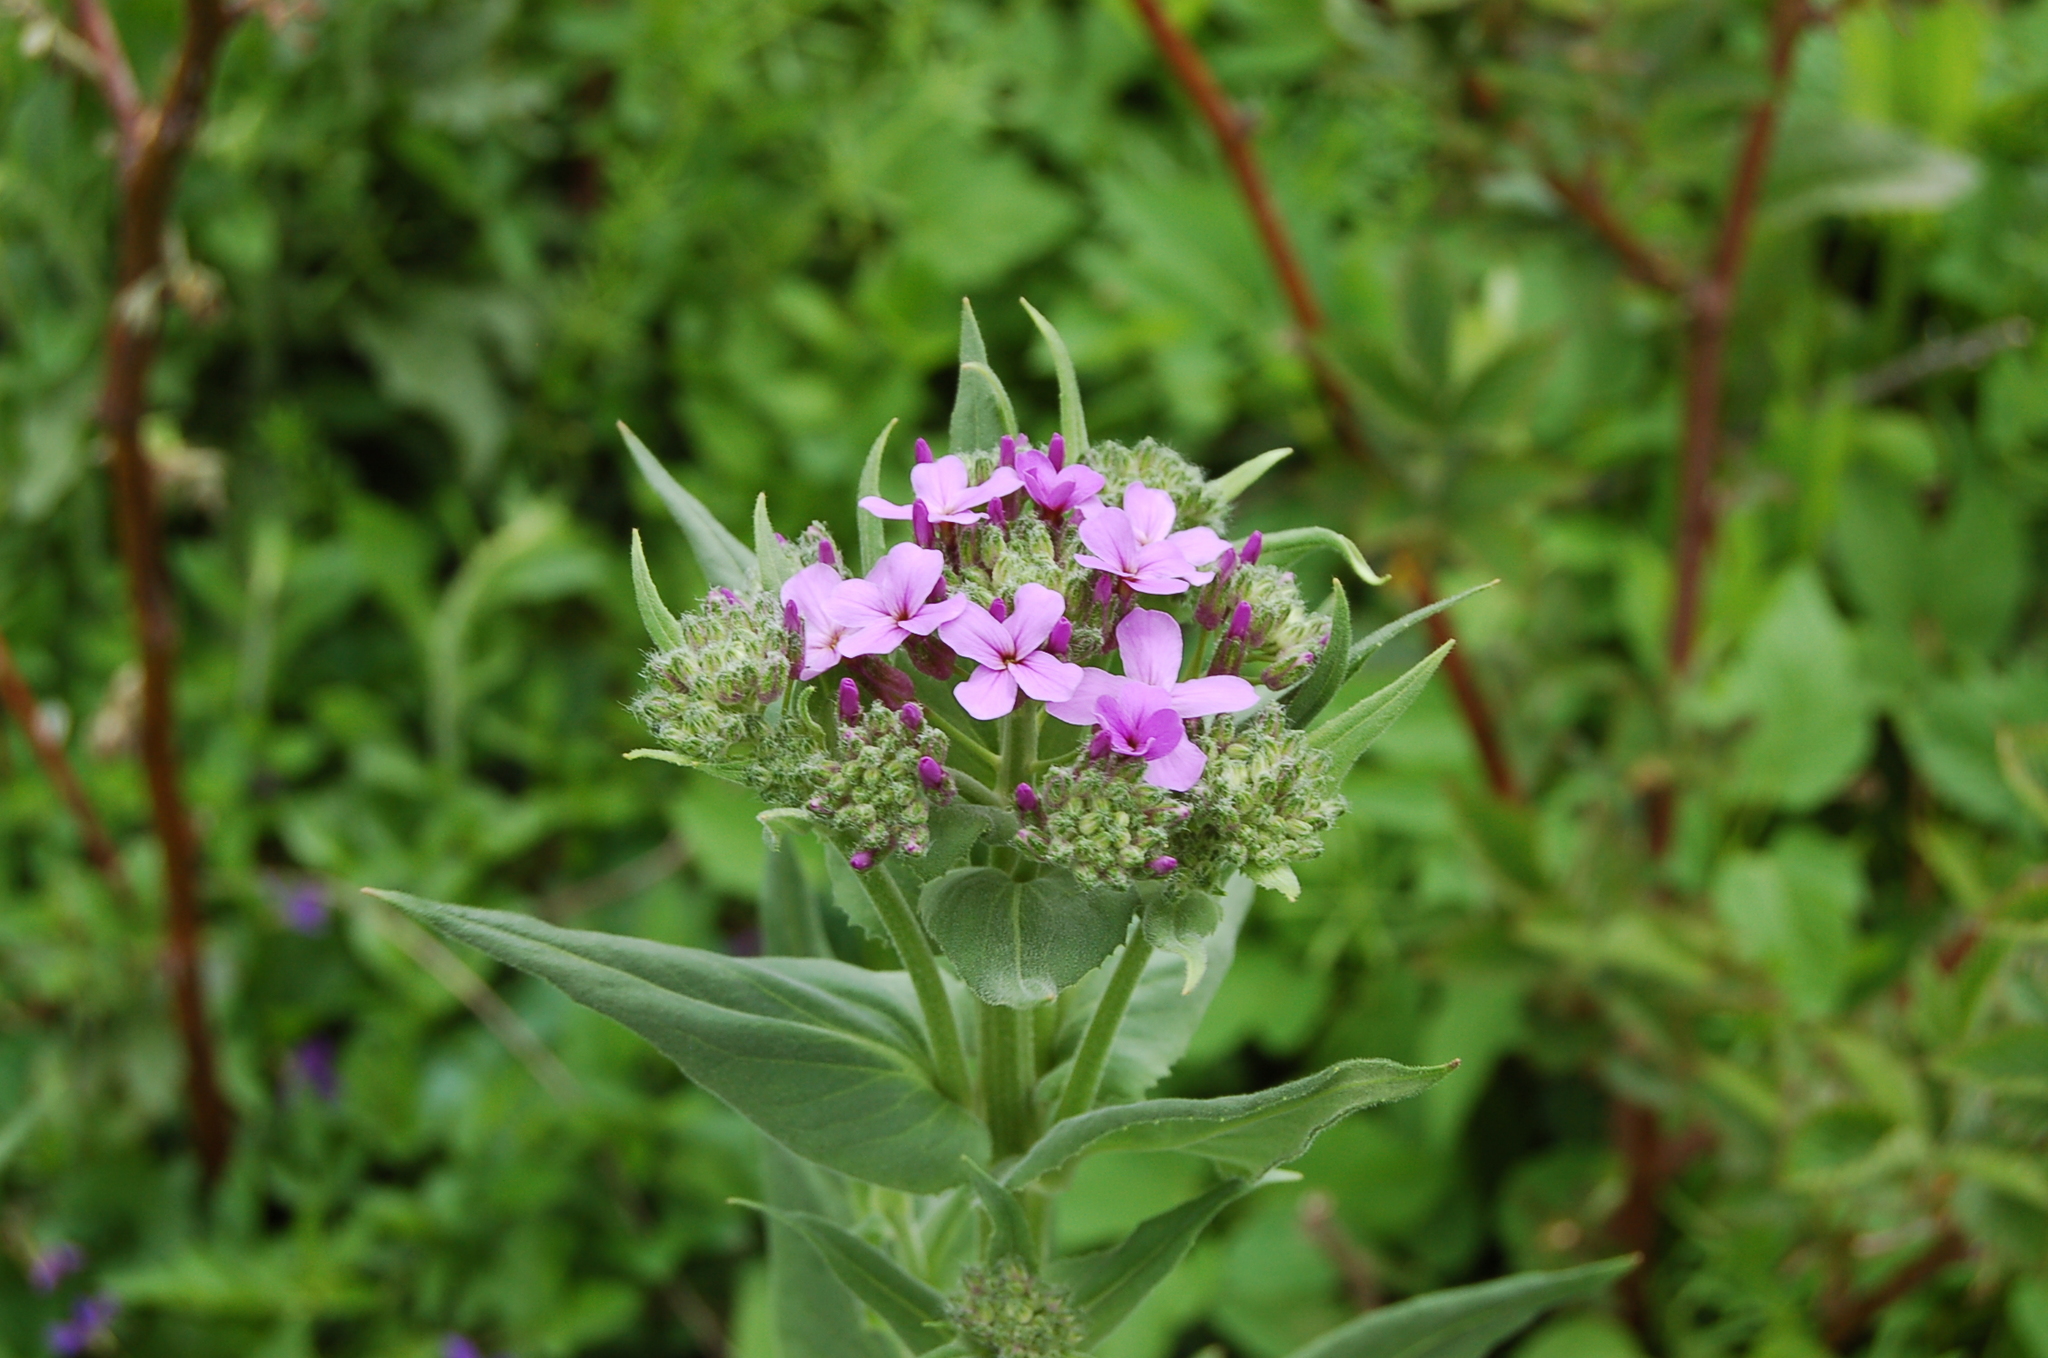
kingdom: Plantae
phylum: Tracheophyta
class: Magnoliopsida
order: Brassicales
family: Brassicaceae
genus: Hesperis
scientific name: Hesperis matronalis
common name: Dame's-violet
